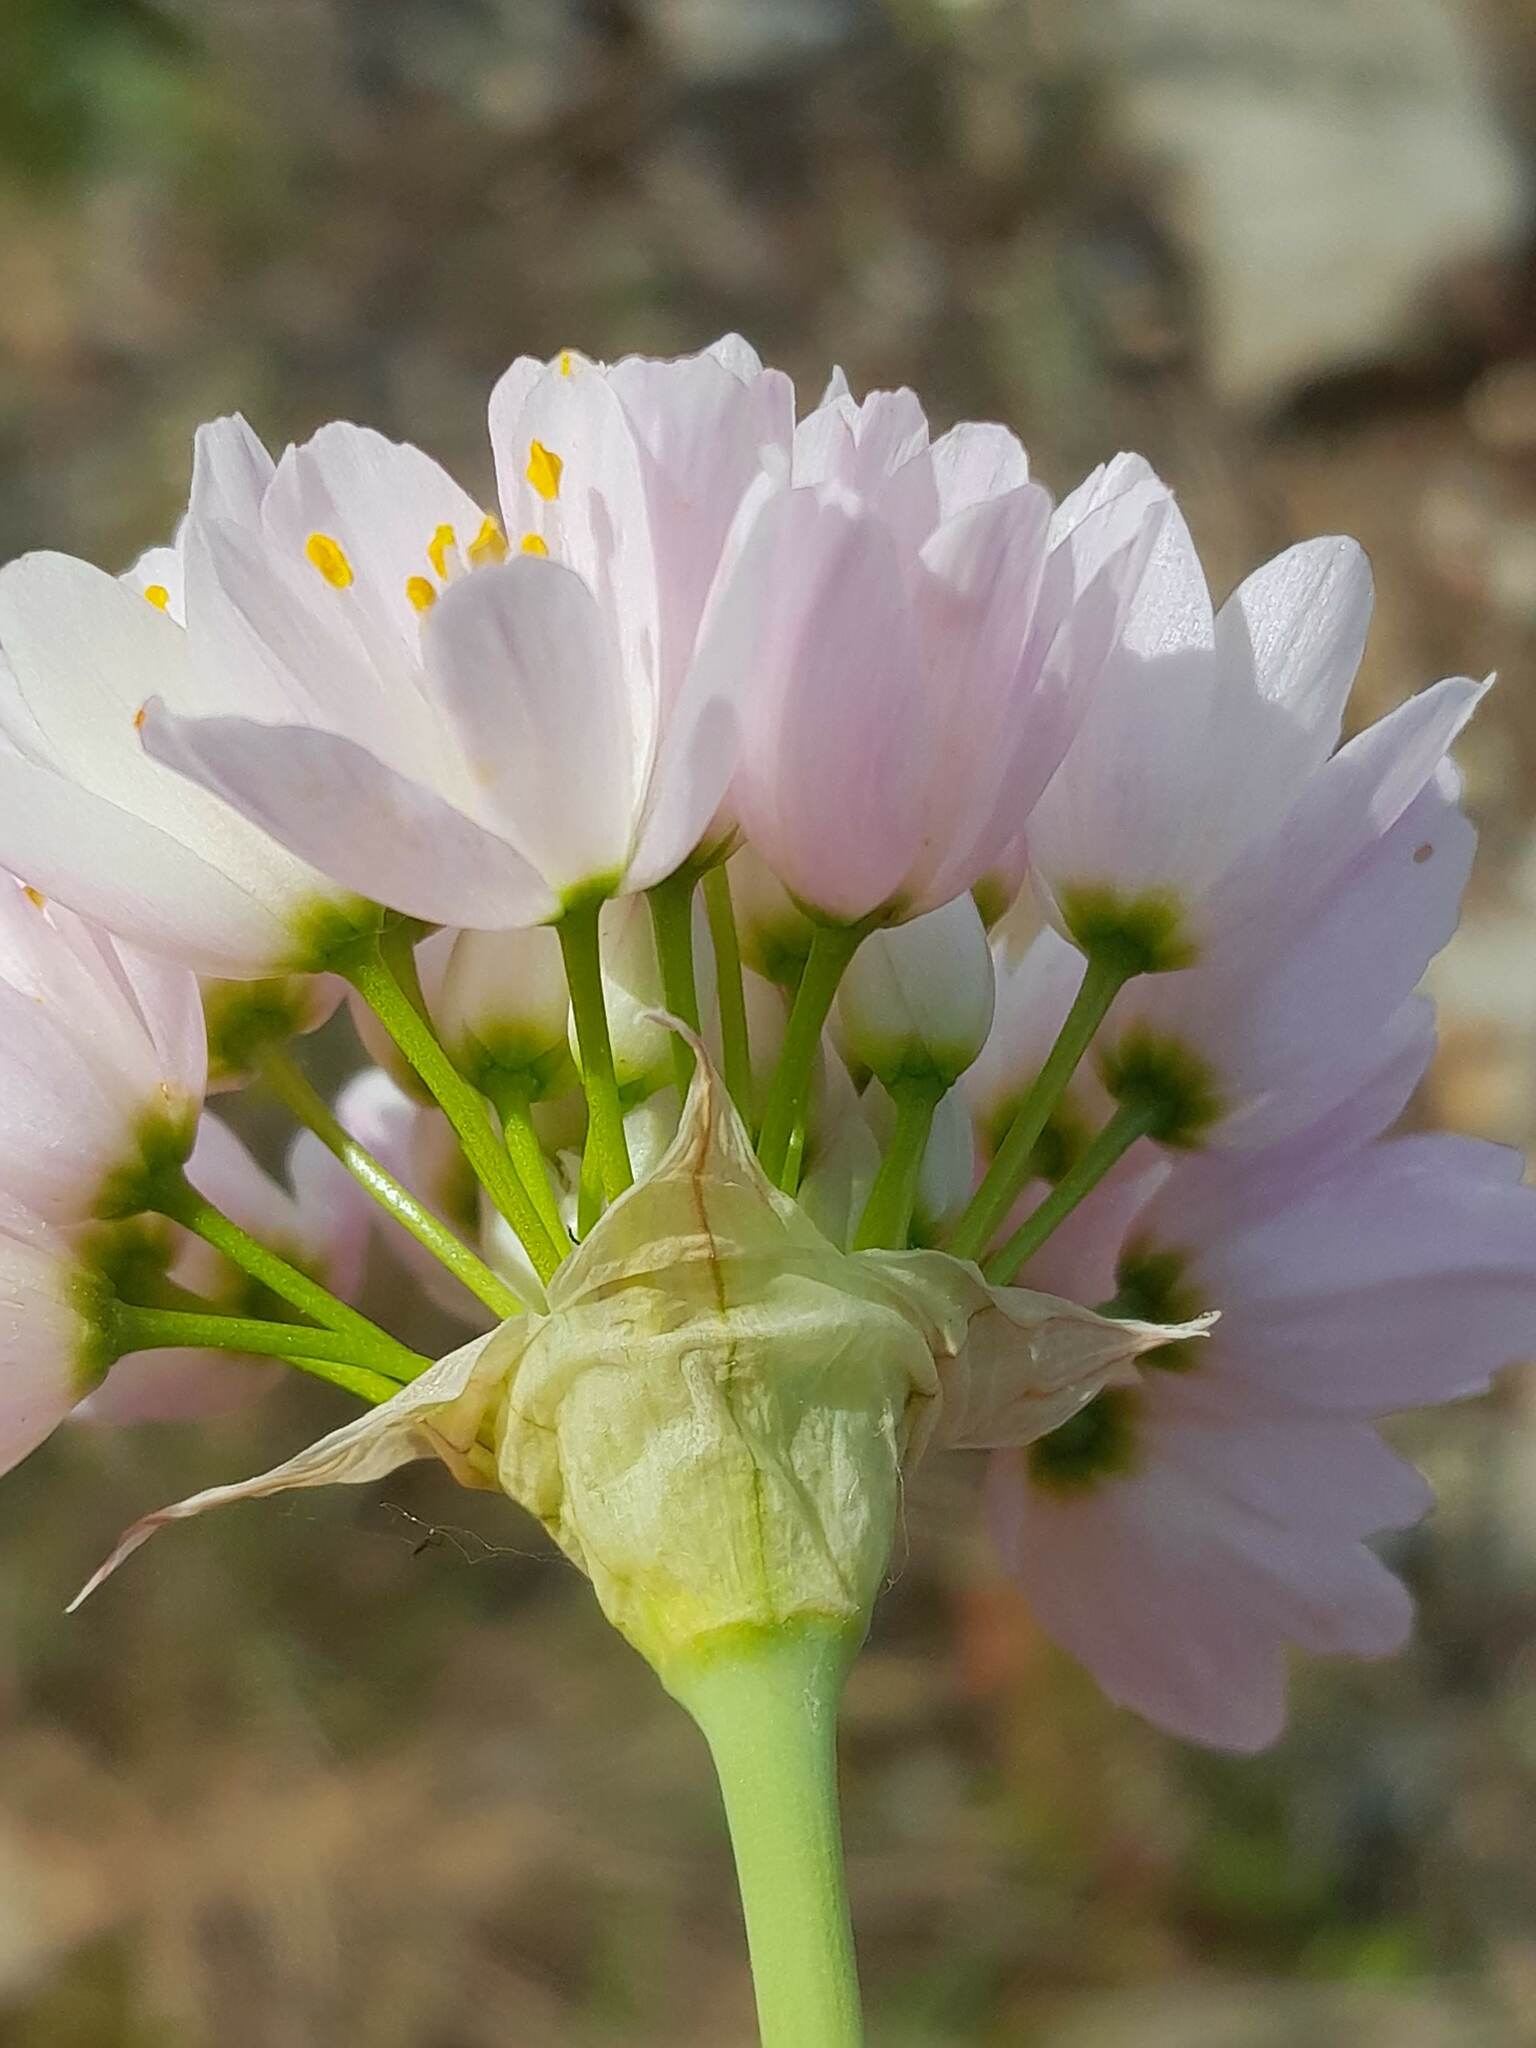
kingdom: Plantae
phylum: Tracheophyta
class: Liliopsida
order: Asparagales
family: Amaryllidaceae
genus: Allium
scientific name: Allium roseum
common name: Rosy garlic
